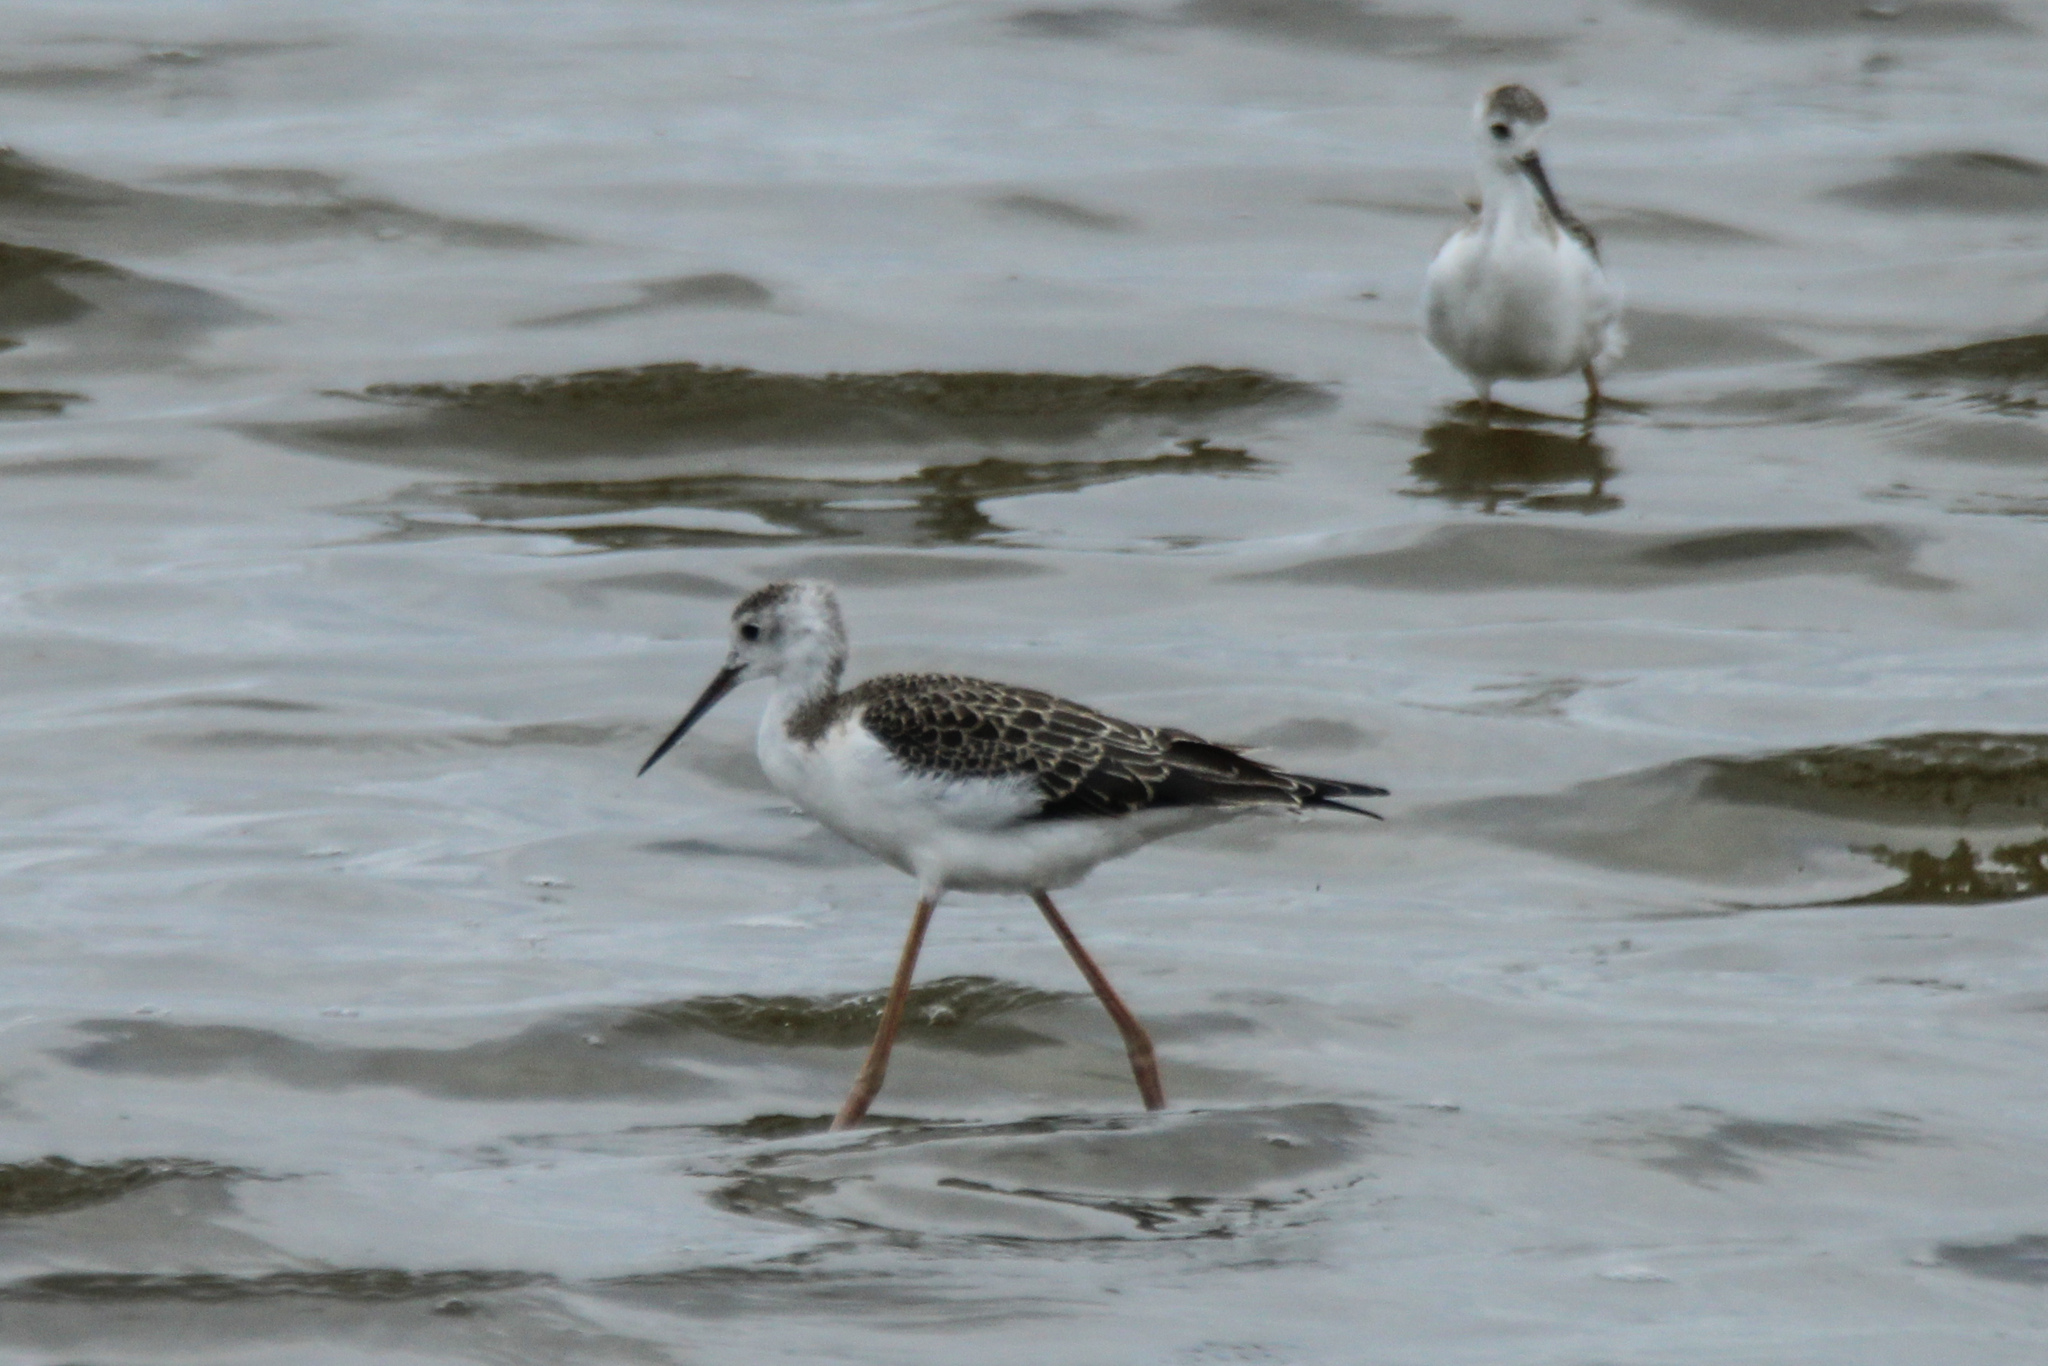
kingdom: Animalia
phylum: Chordata
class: Aves
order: Charadriiformes
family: Recurvirostridae
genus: Himantopus
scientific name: Himantopus himantopus
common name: Black-winged stilt
